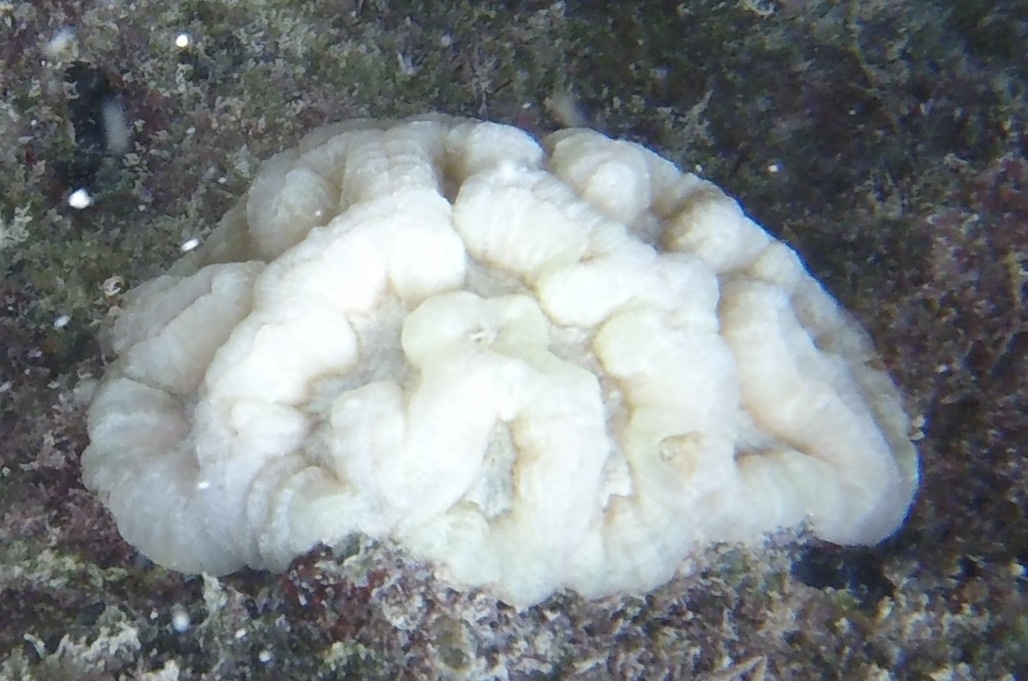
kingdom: Animalia
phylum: Cnidaria
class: Anthozoa
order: Scleractinia
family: Faviidae
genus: Isophyllia
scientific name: Isophyllia sinuosa
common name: Sinuous cactus coral
